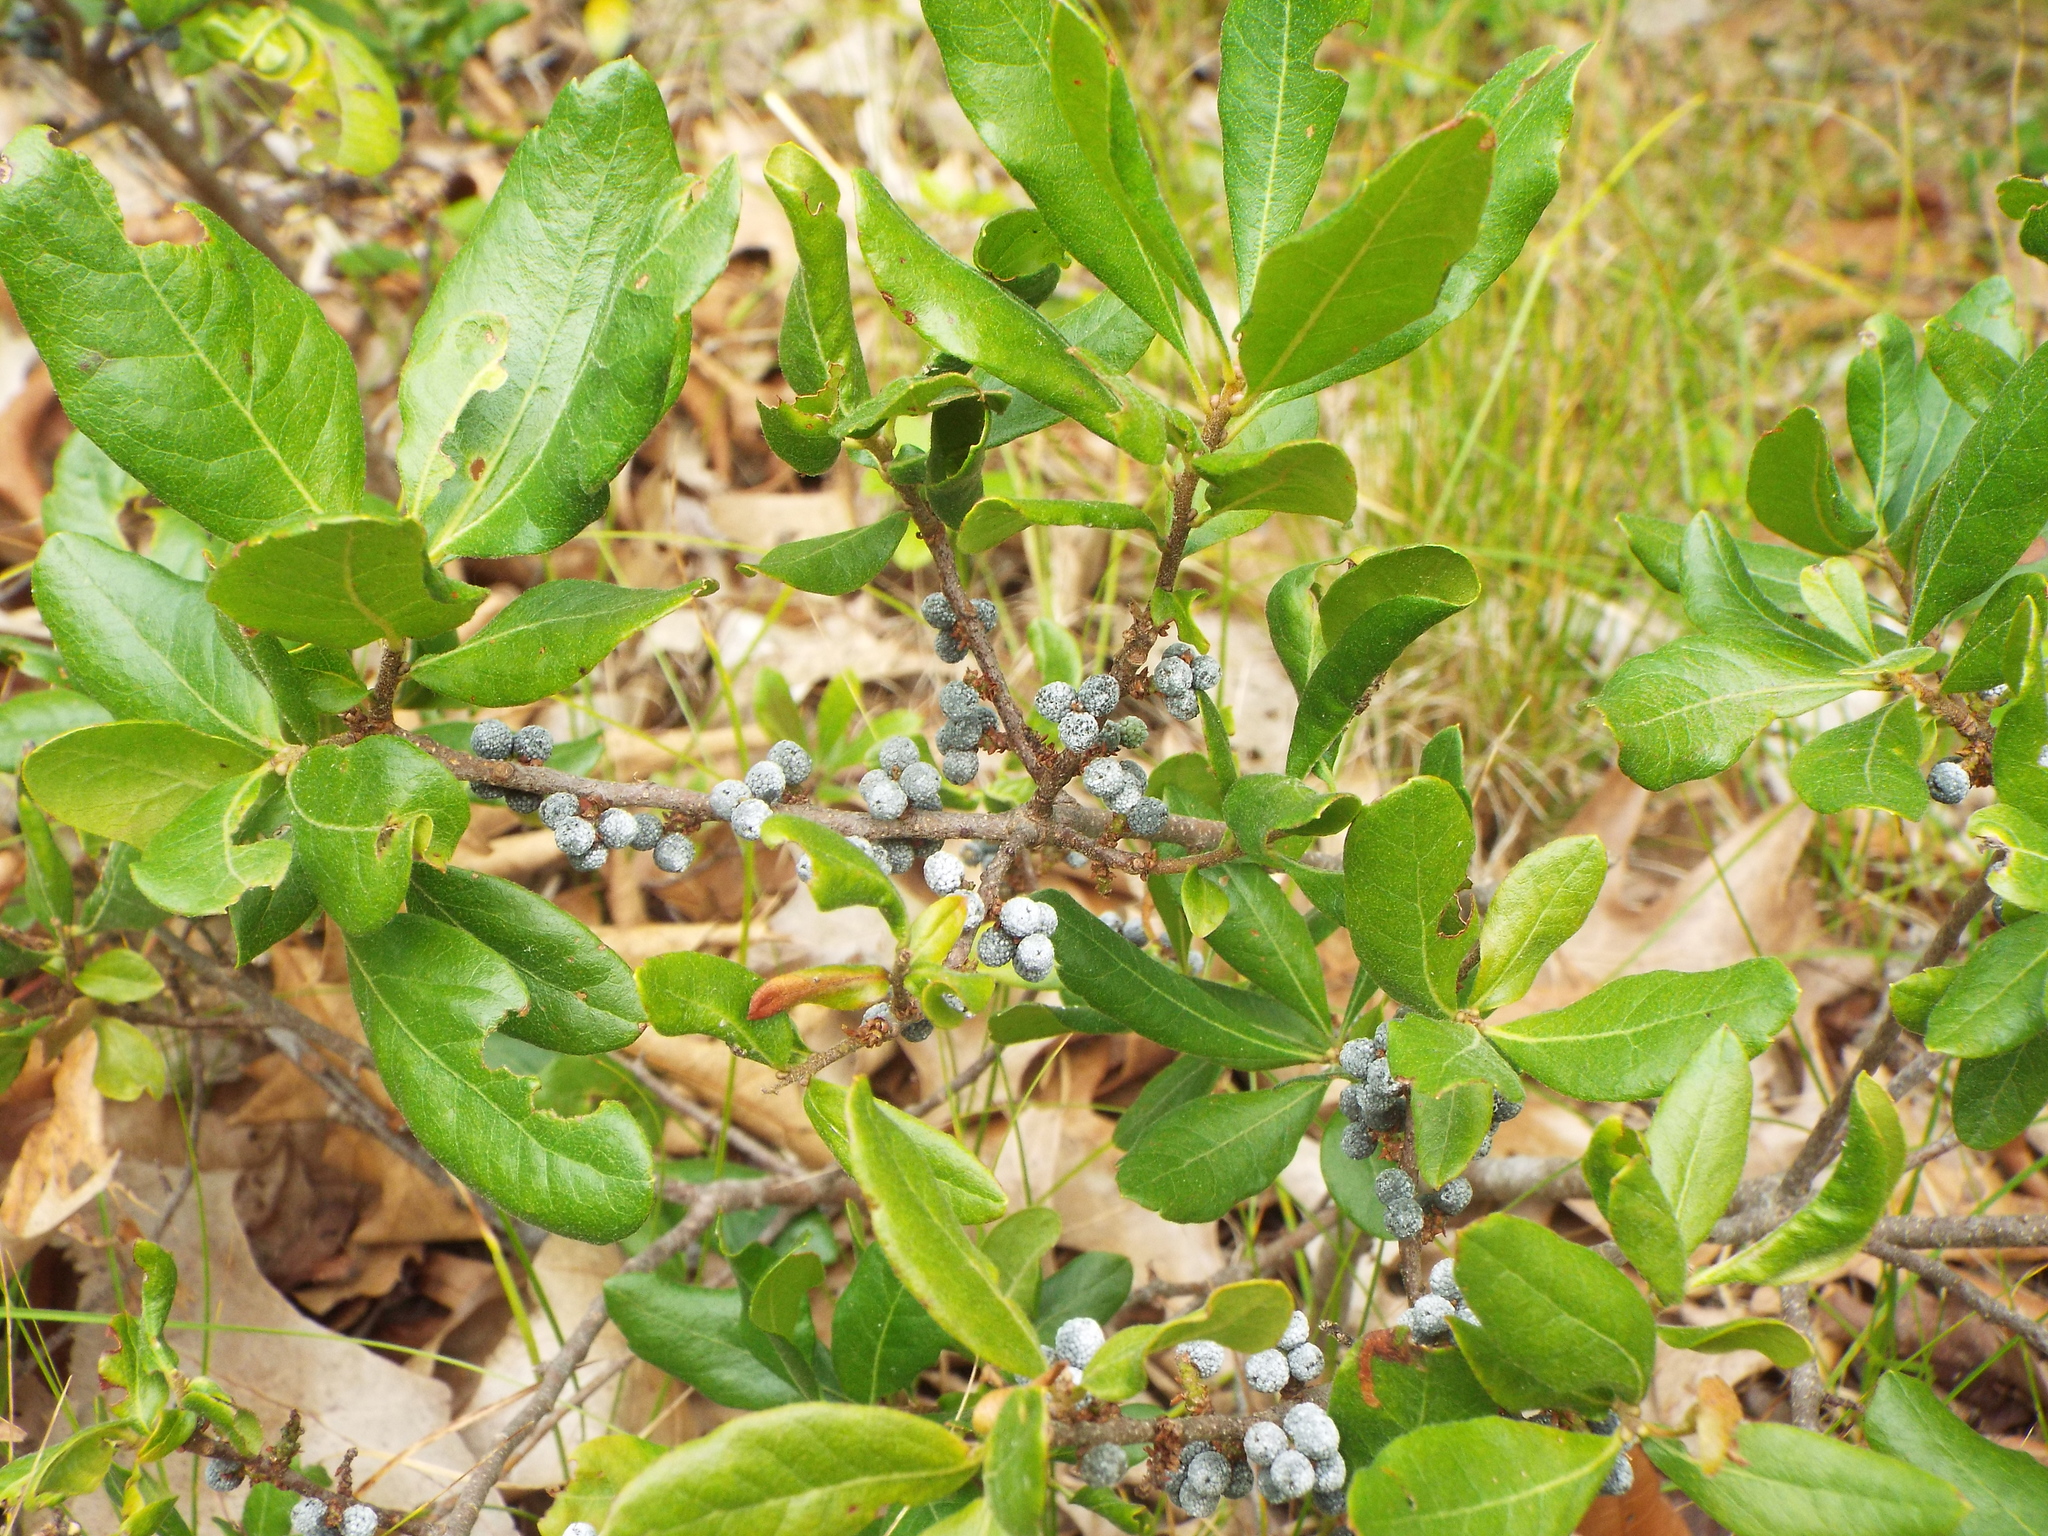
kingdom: Plantae
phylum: Tracheophyta
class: Magnoliopsida
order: Fagales
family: Myricaceae
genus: Morella
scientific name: Morella pensylvanica
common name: Northern bayberry
